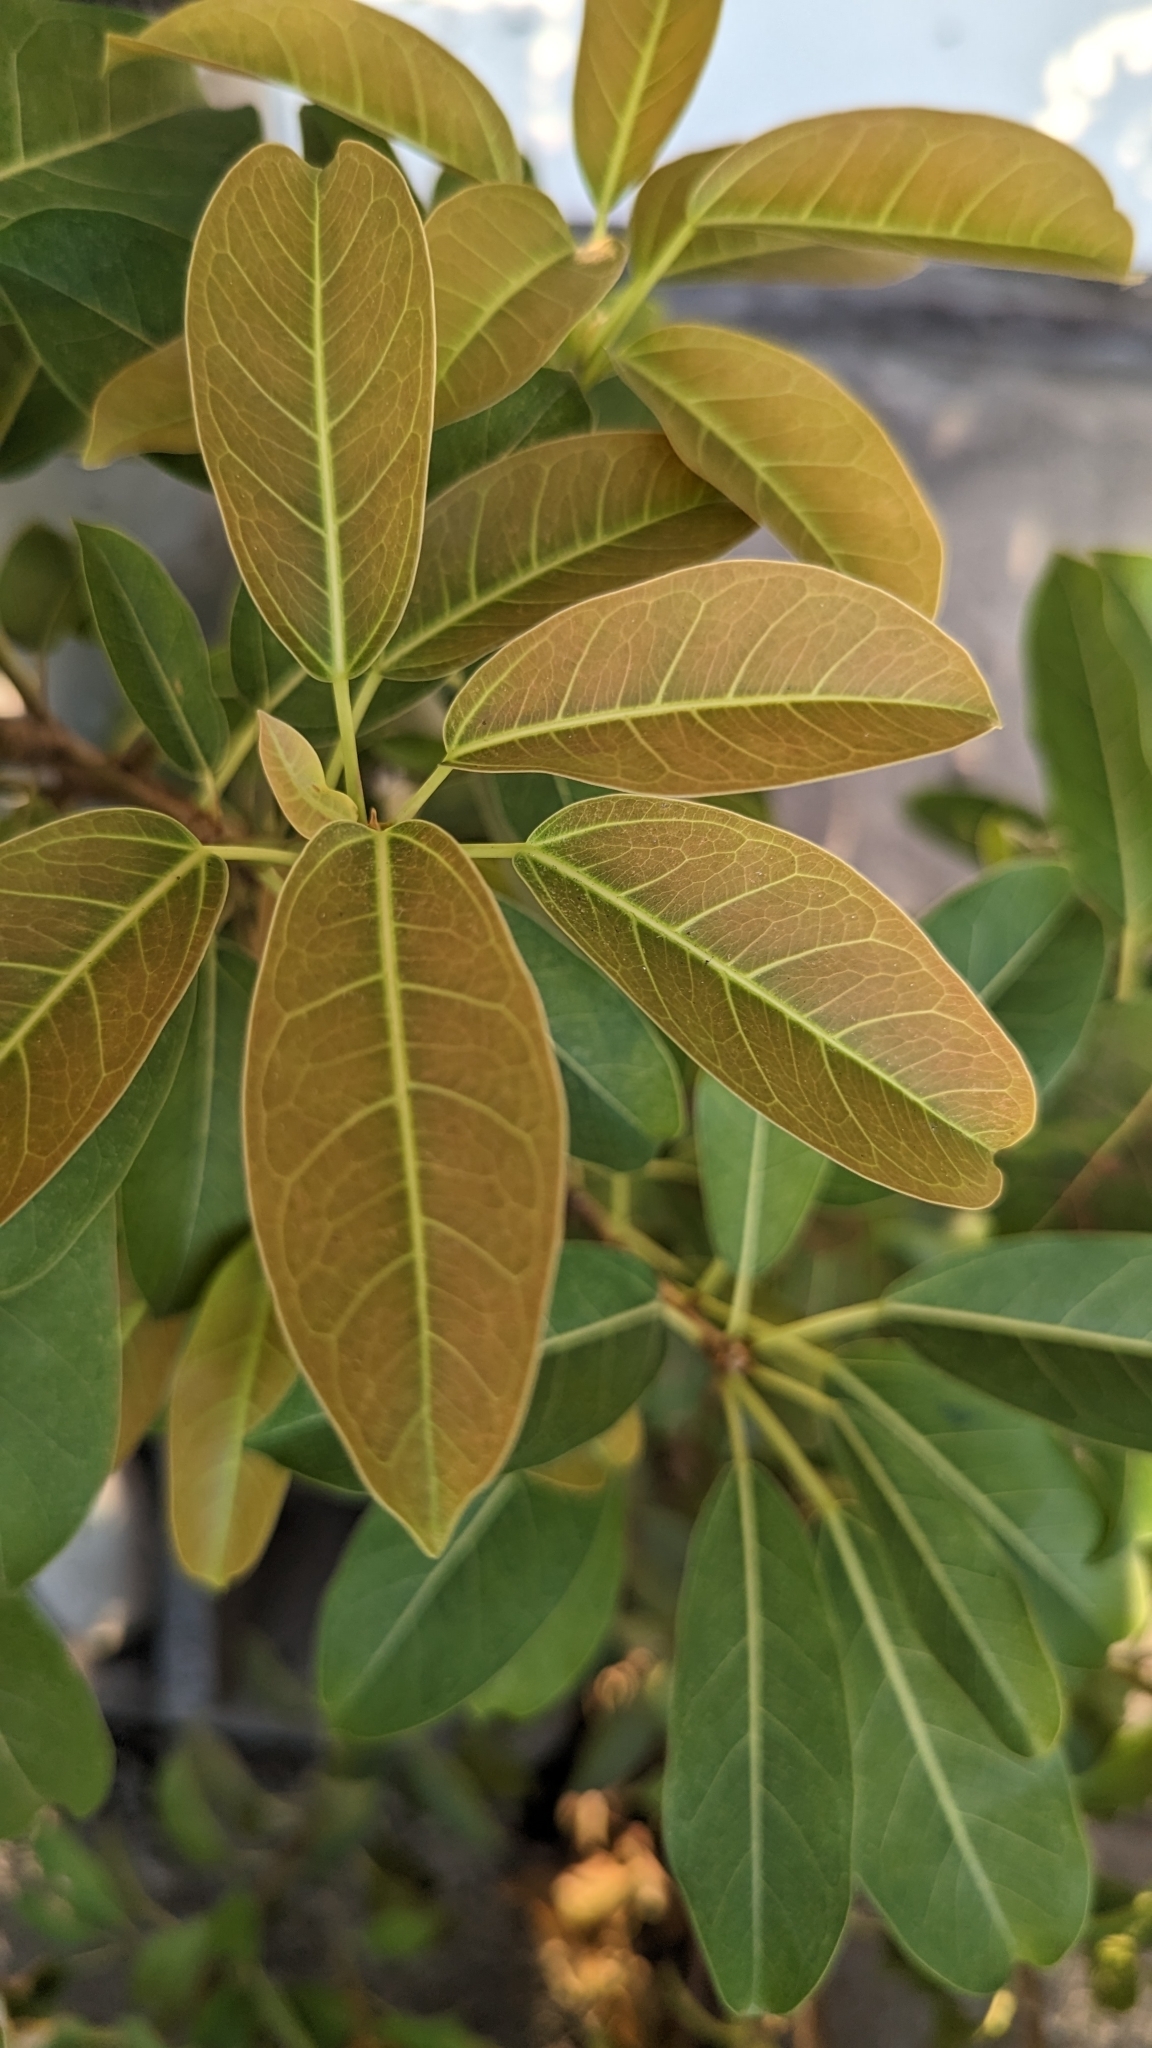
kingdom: Plantae
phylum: Tracheophyta
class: Magnoliopsida
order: Rosales
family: Moraceae
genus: Ficus
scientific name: Ficus subpisocarpa
